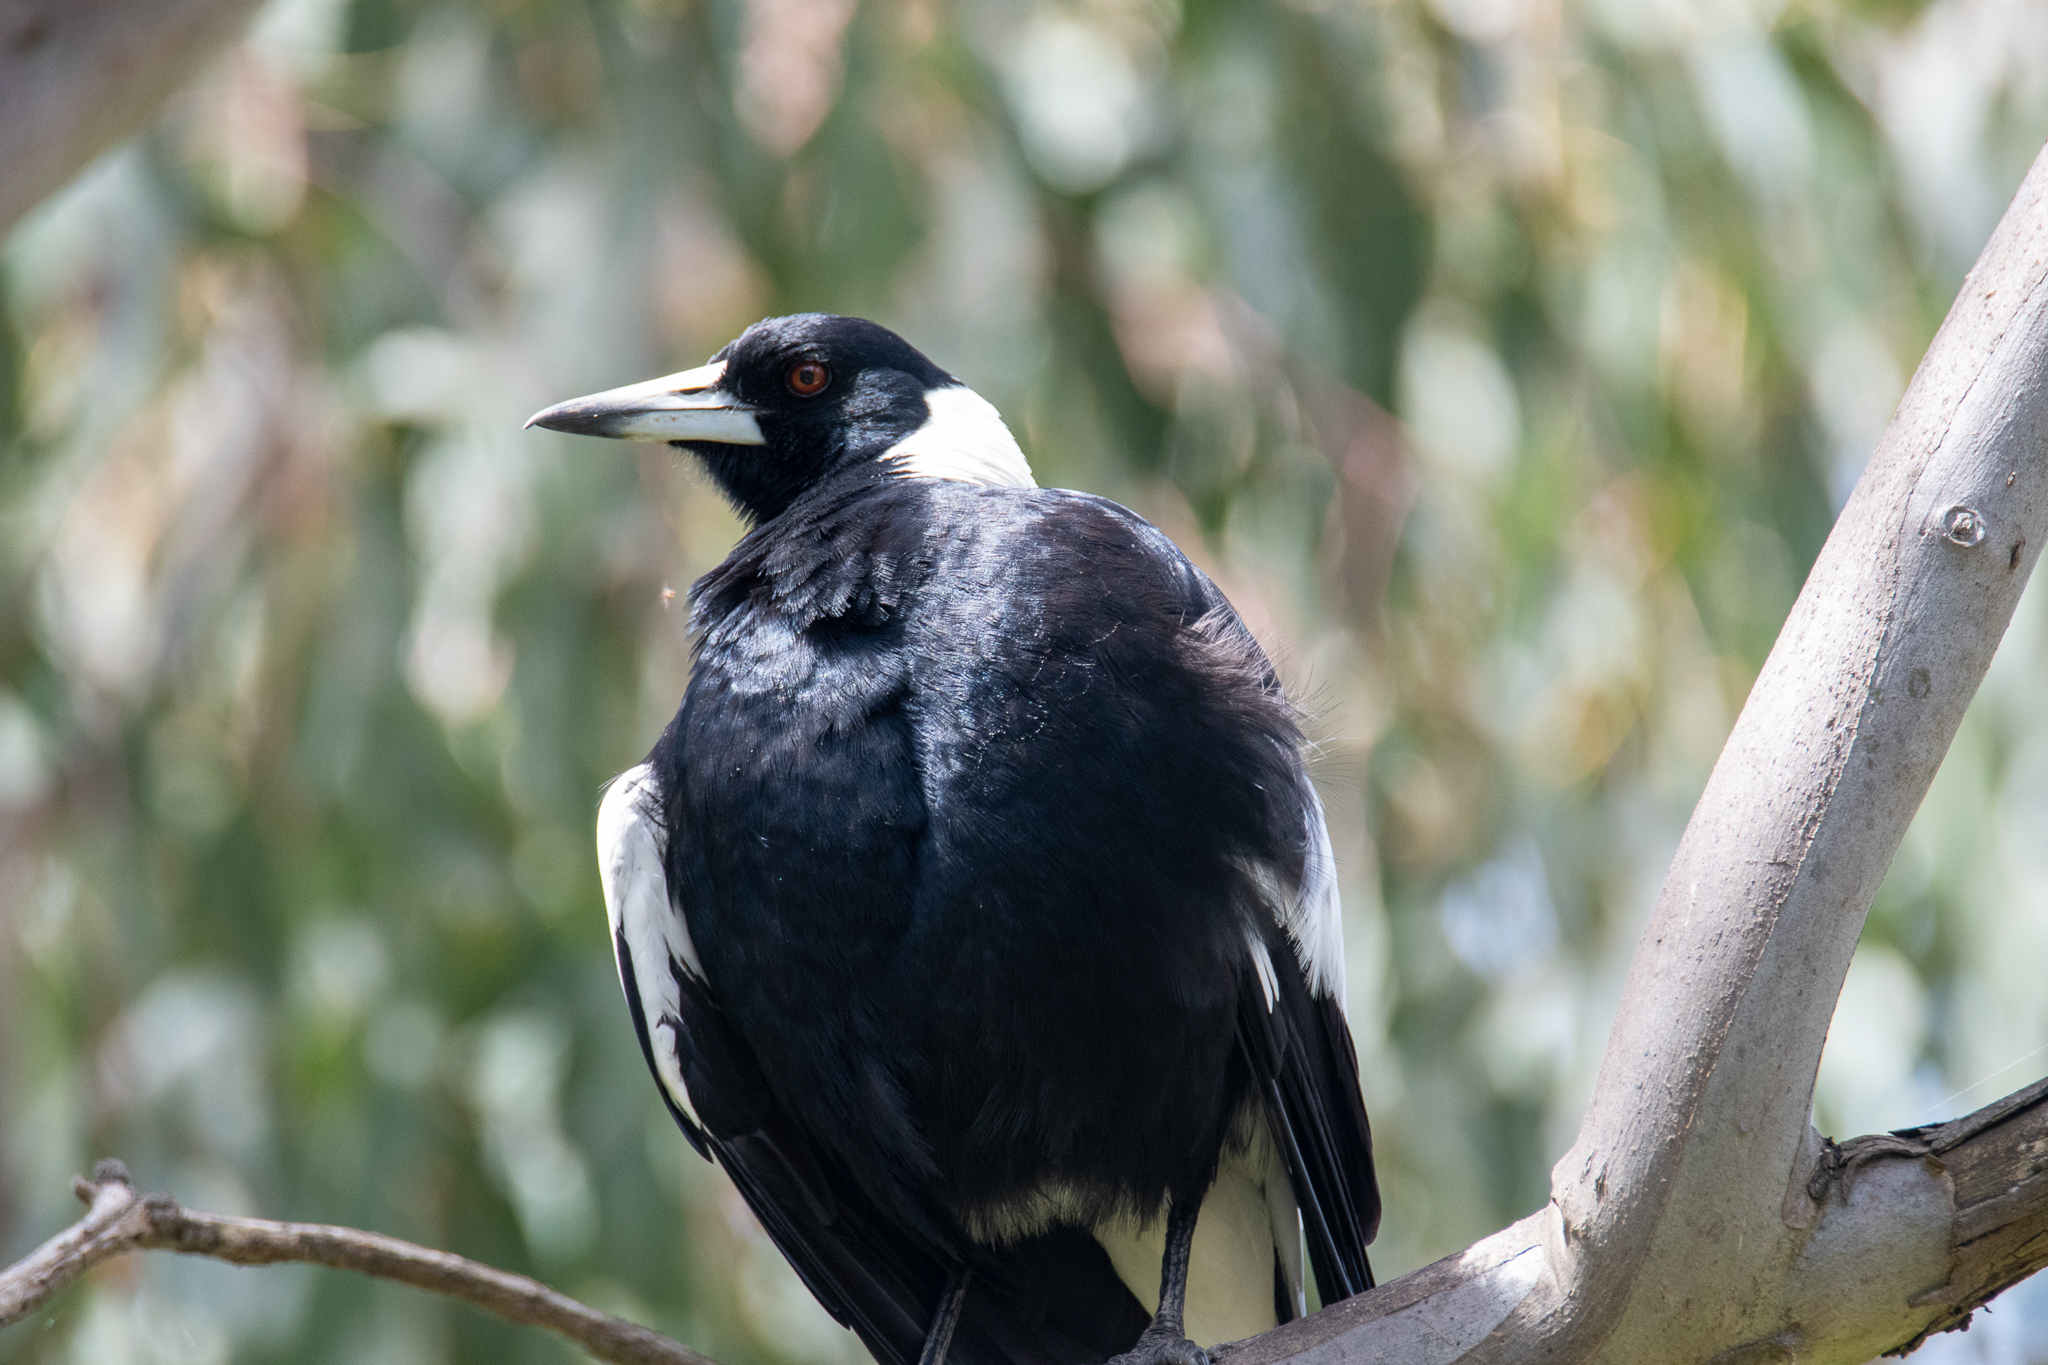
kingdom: Animalia
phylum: Chordata
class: Aves
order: Passeriformes
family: Cracticidae
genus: Gymnorhina
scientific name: Gymnorhina tibicen
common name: Australian magpie
